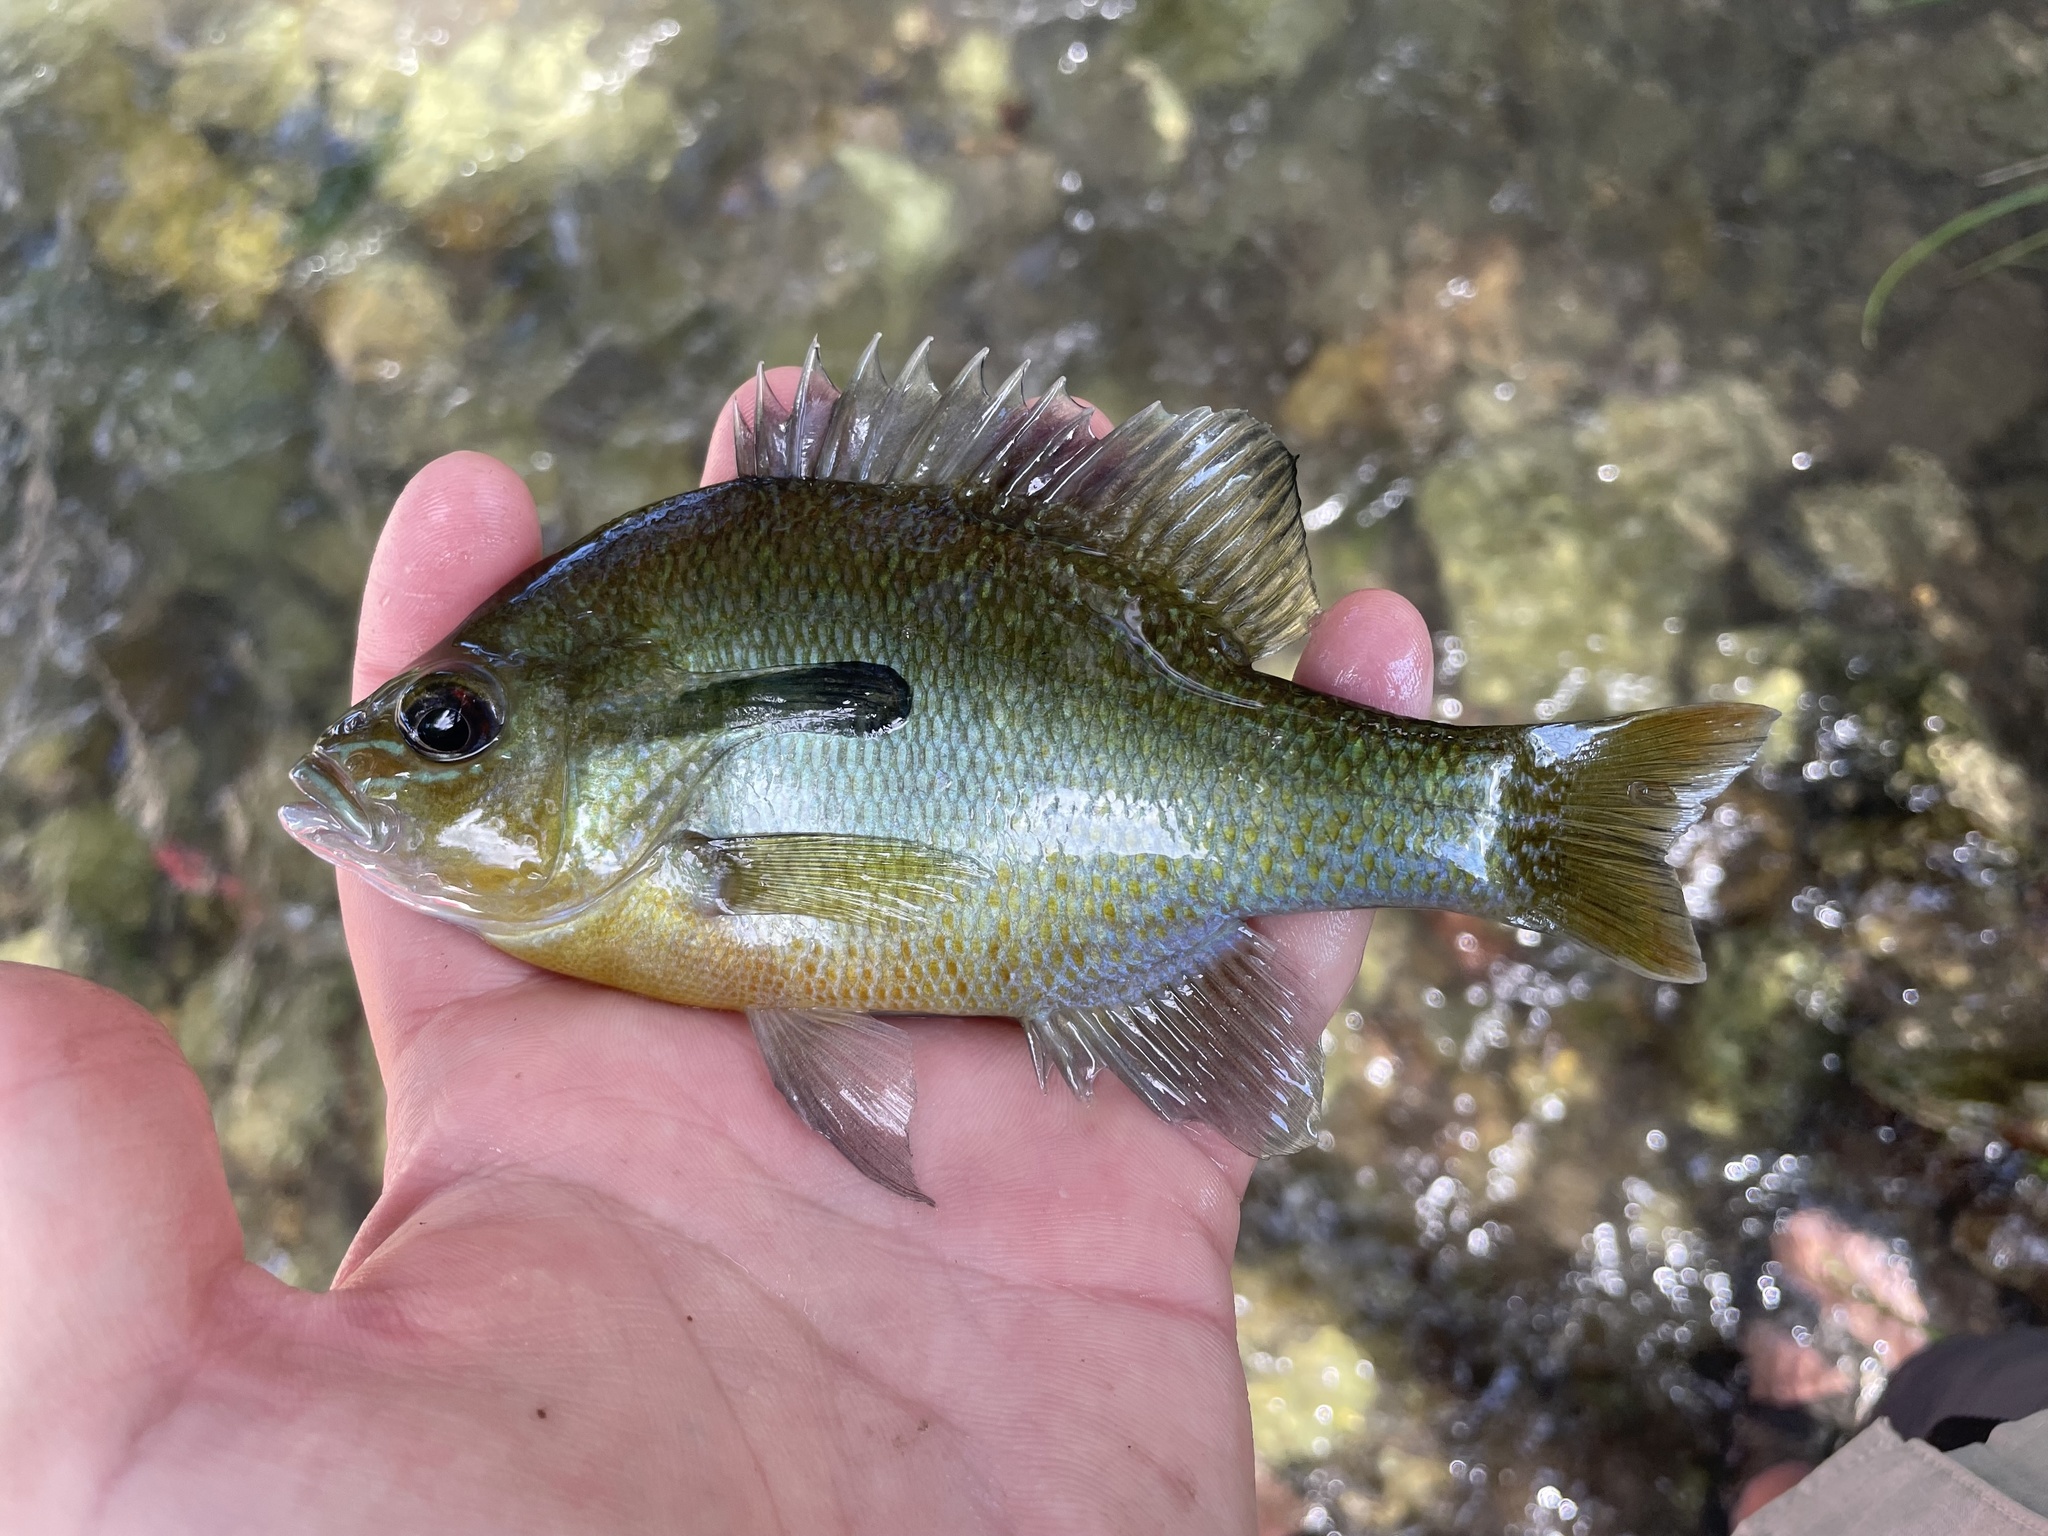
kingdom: Animalia
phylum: Chordata
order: Perciformes
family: Centrarchidae
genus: Lepomis
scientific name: Lepomis auritus
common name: Redbreast sunfish
